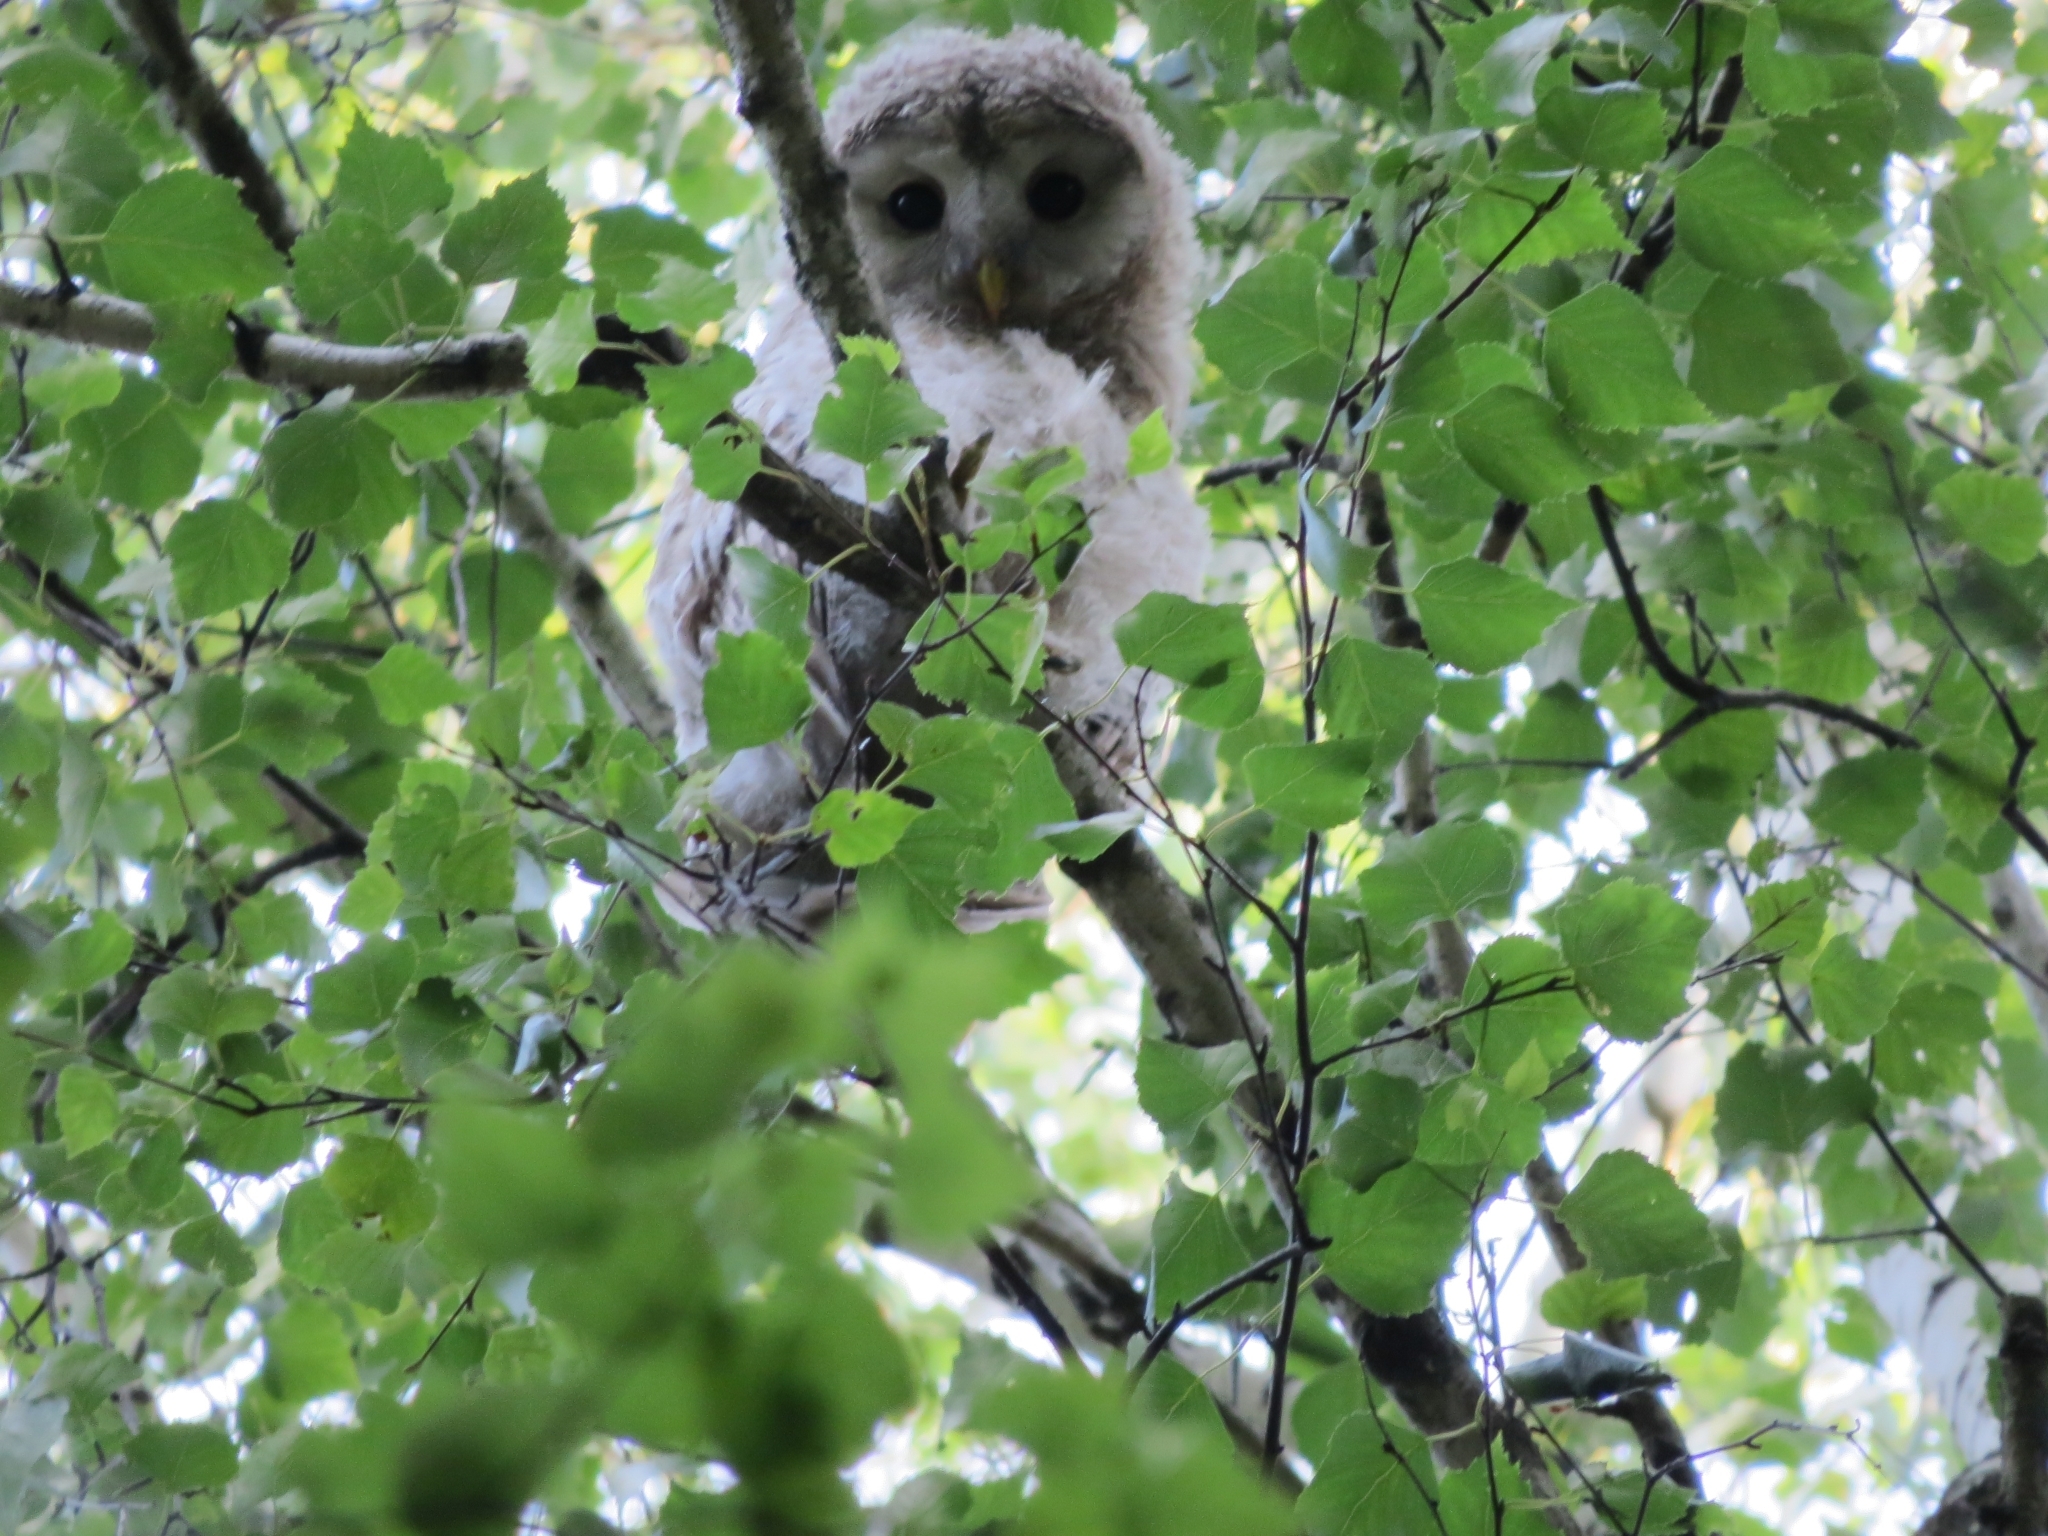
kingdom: Animalia
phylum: Chordata
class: Aves
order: Strigiformes
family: Strigidae
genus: Strix
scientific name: Strix uralensis
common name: Ural owl
